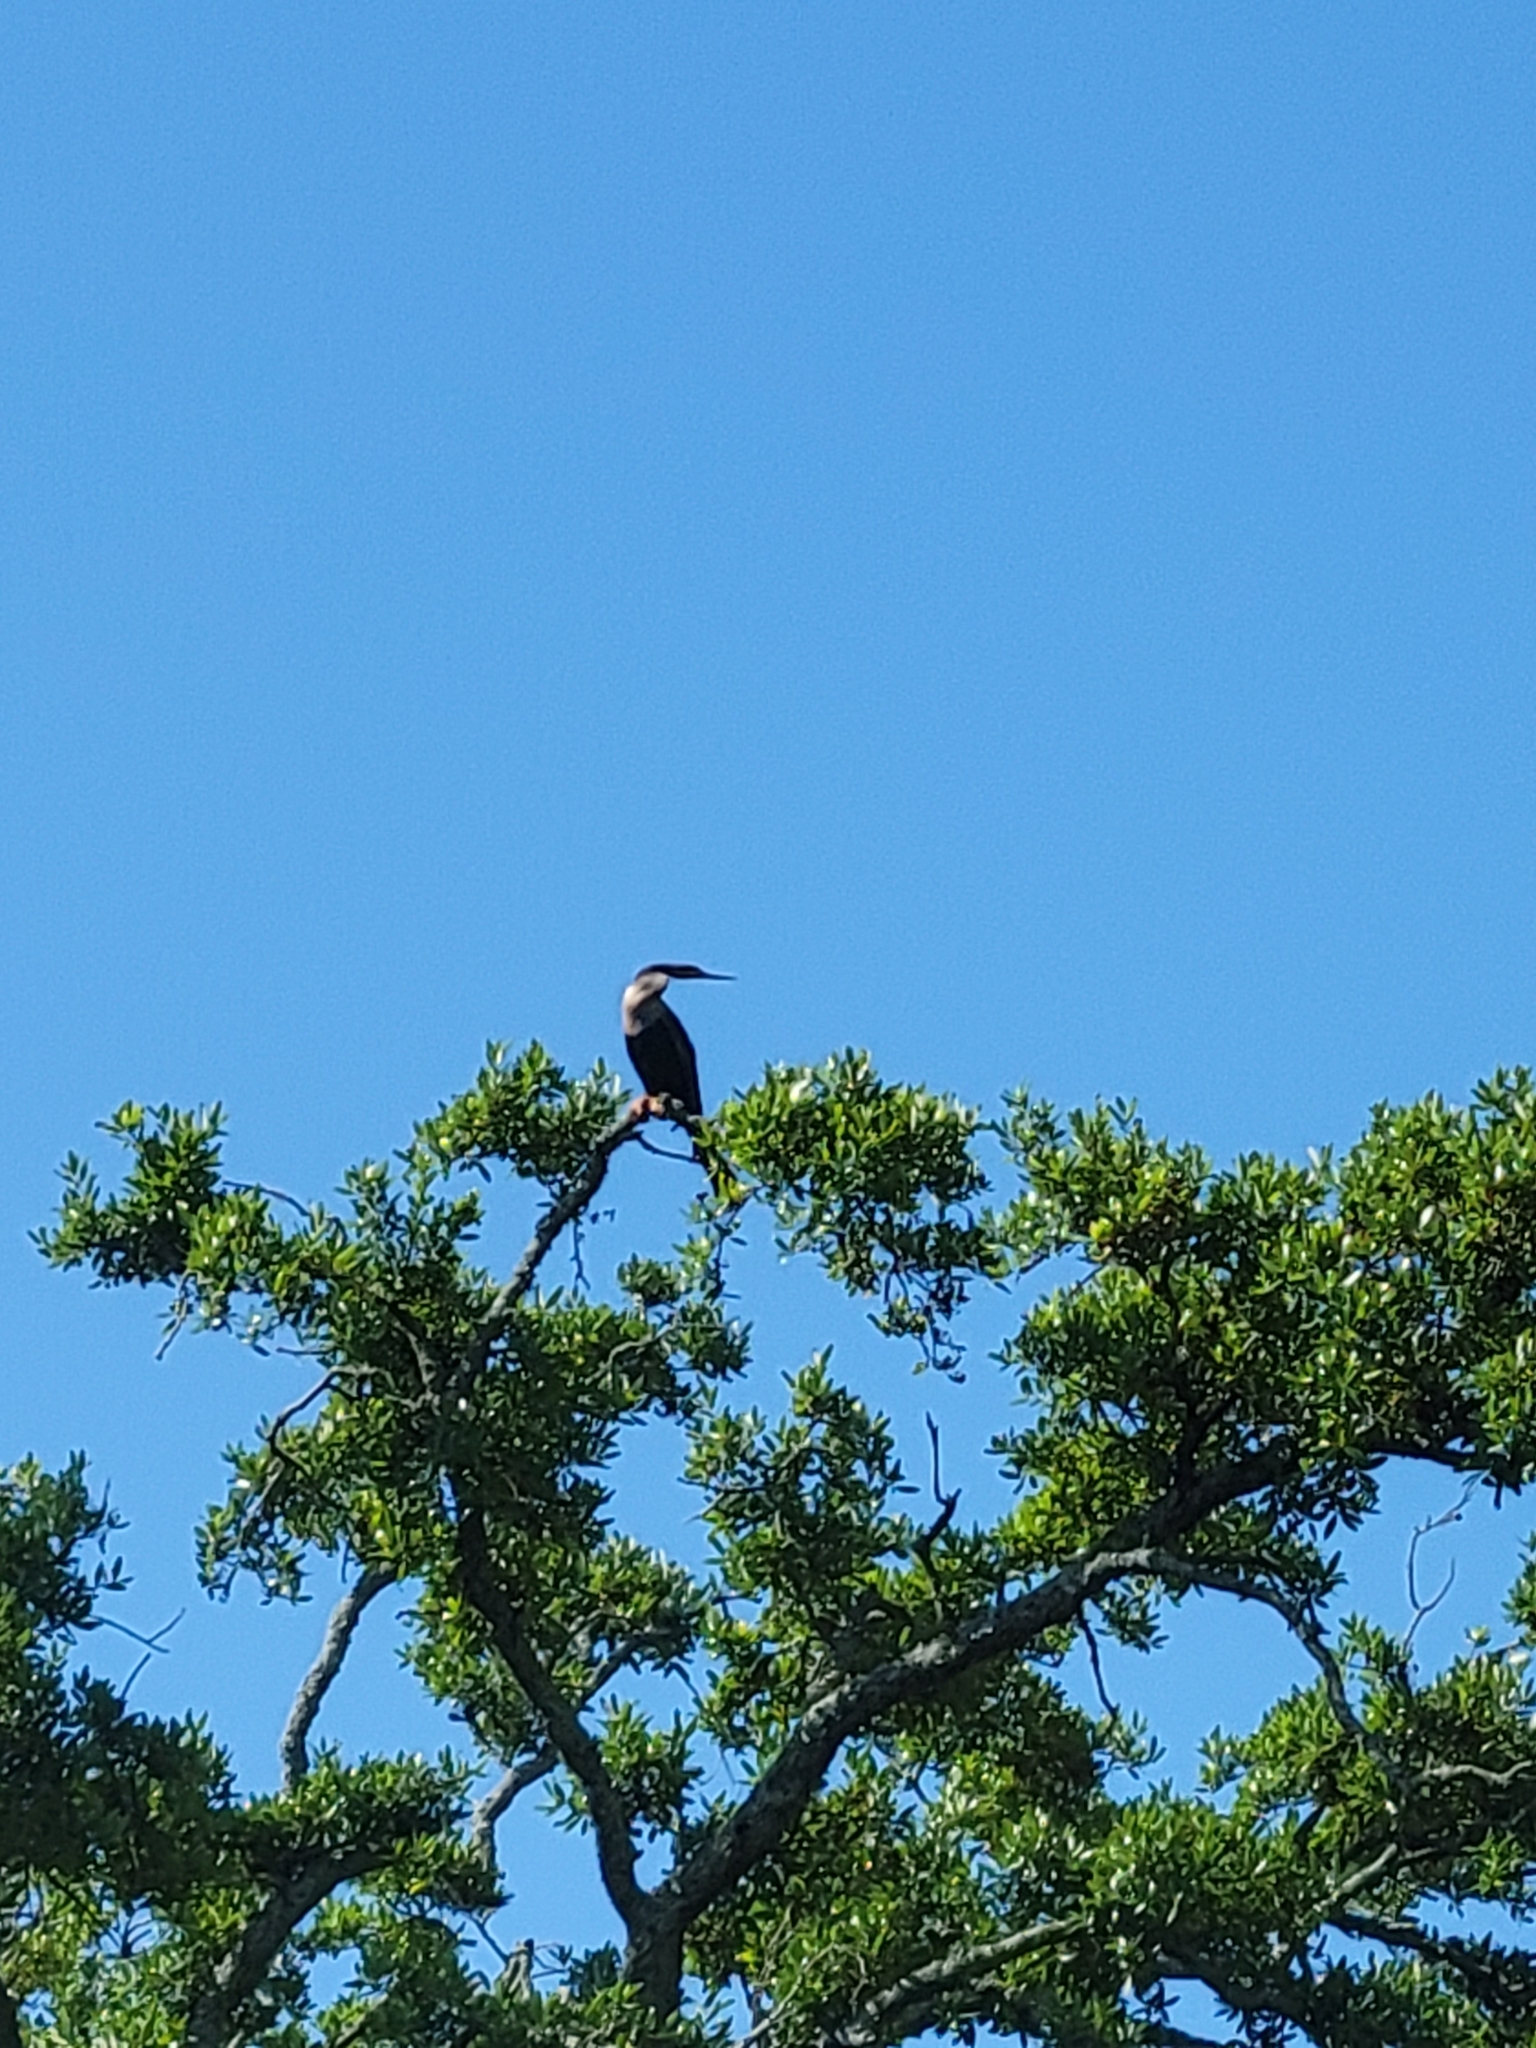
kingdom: Animalia
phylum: Chordata
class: Aves
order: Suliformes
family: Anhingidae
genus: Anhinga
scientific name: Anhinga anhinga
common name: Anhinga
